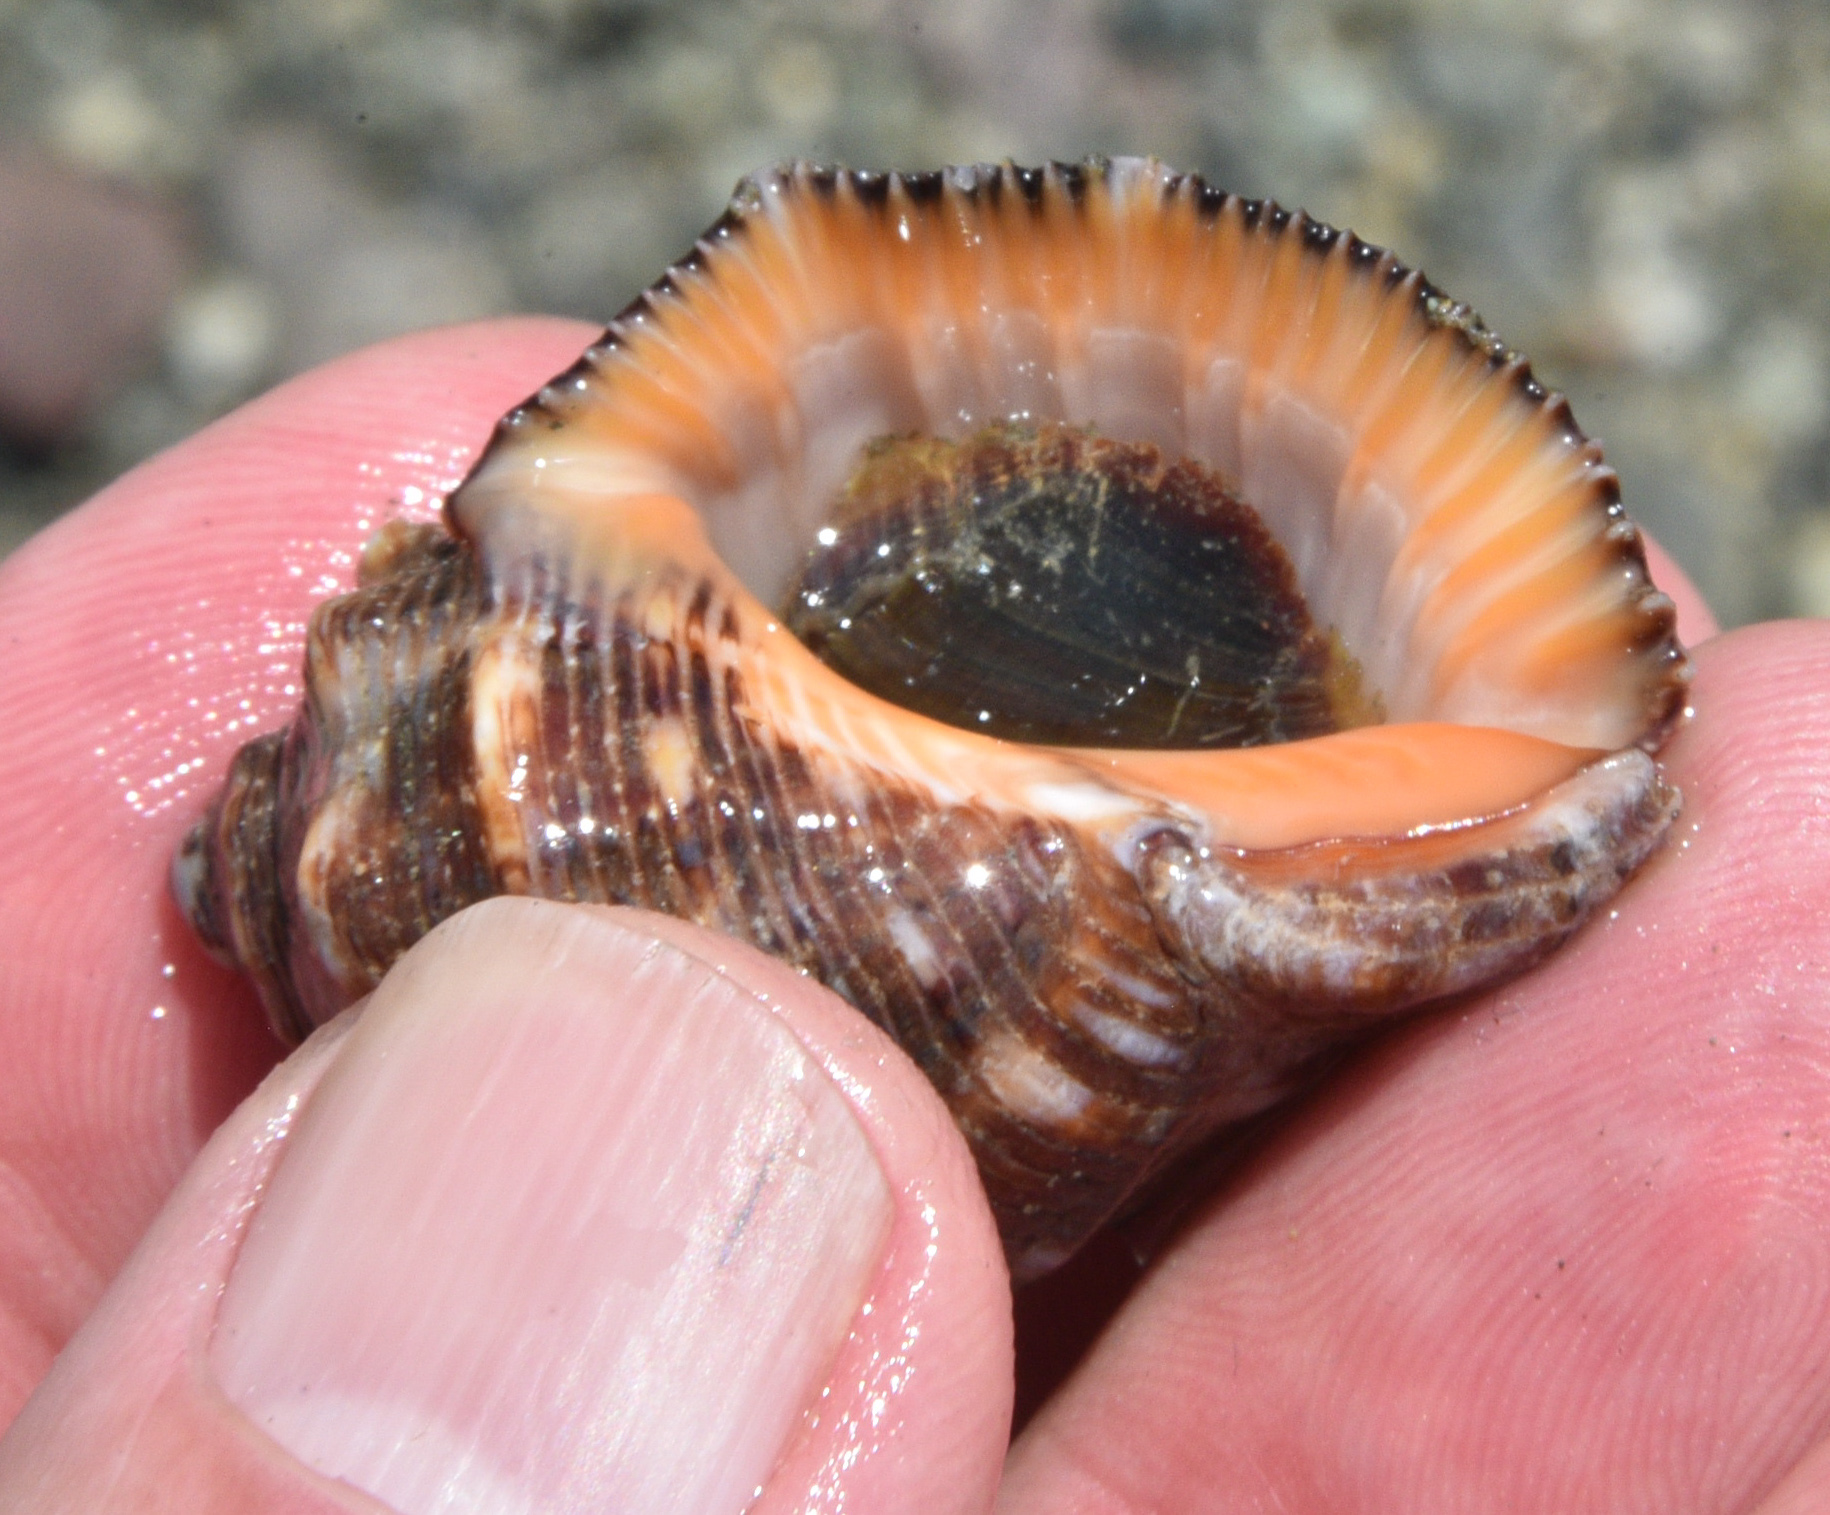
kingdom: Animalia
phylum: Mollusca
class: Gastropoda
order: Neogastropoda
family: Muricidae
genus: Stramonita
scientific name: Stramonita biserialis
